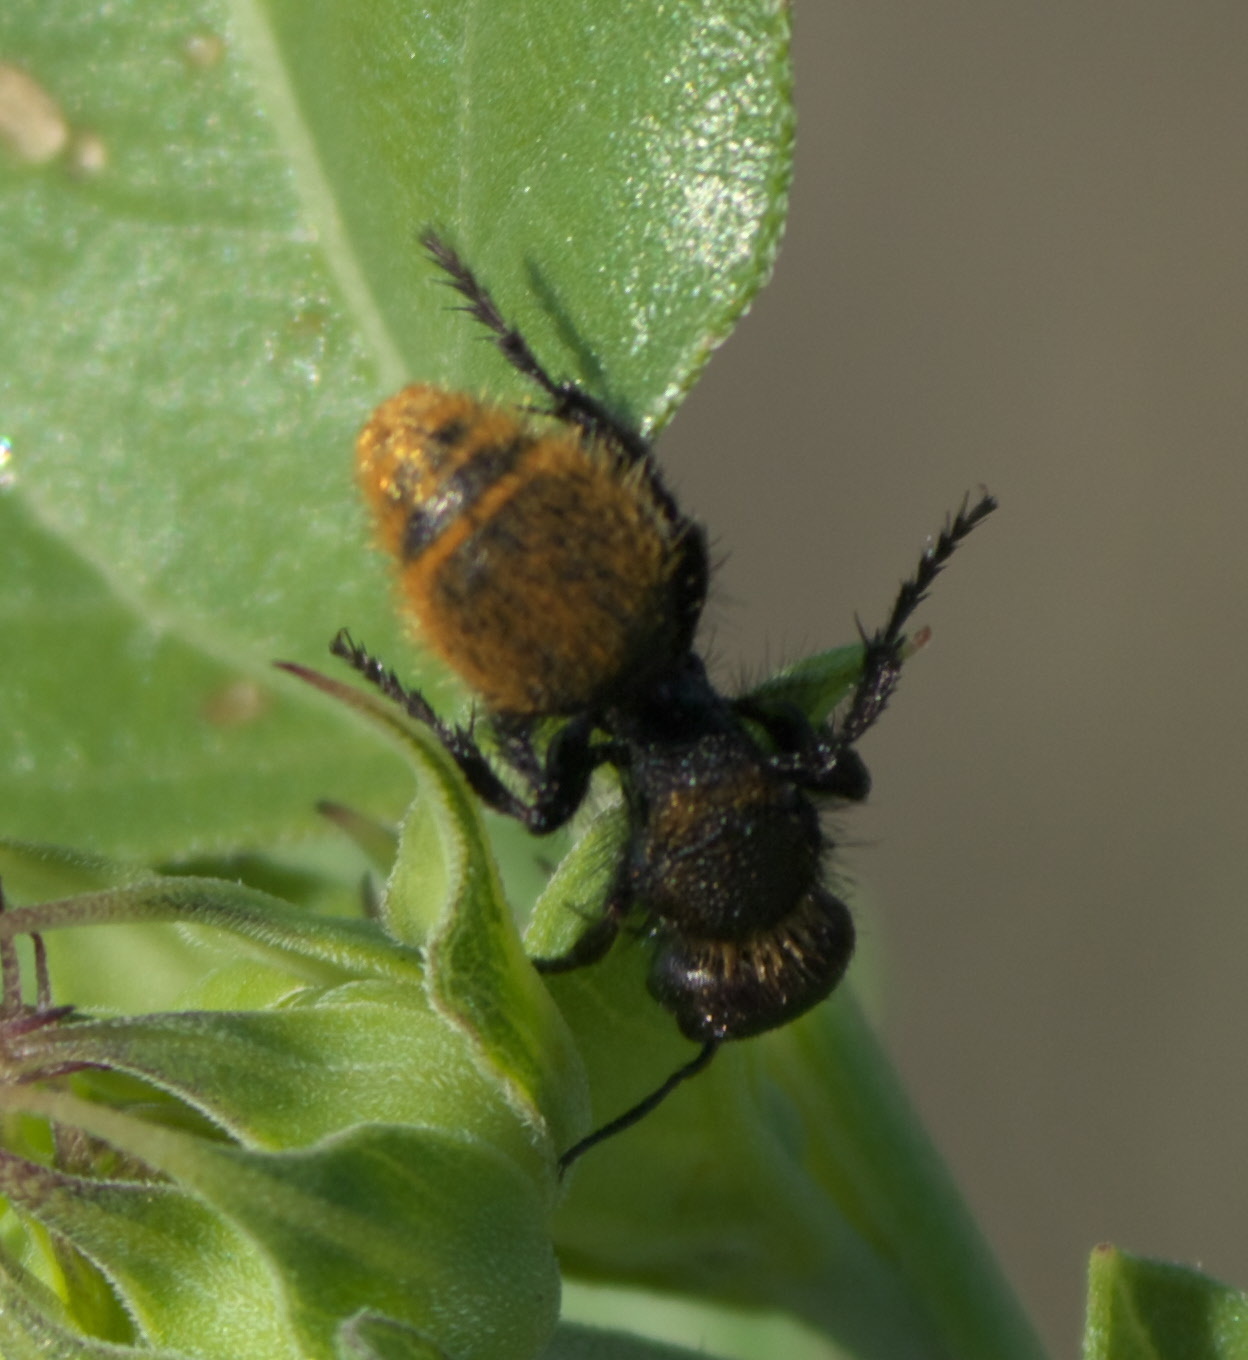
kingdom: Animalia
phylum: Arthropoda
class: Insecta
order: Hymenoptera
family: Mutillidae
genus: Dasymutilla
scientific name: Dasymutilla gorgon
